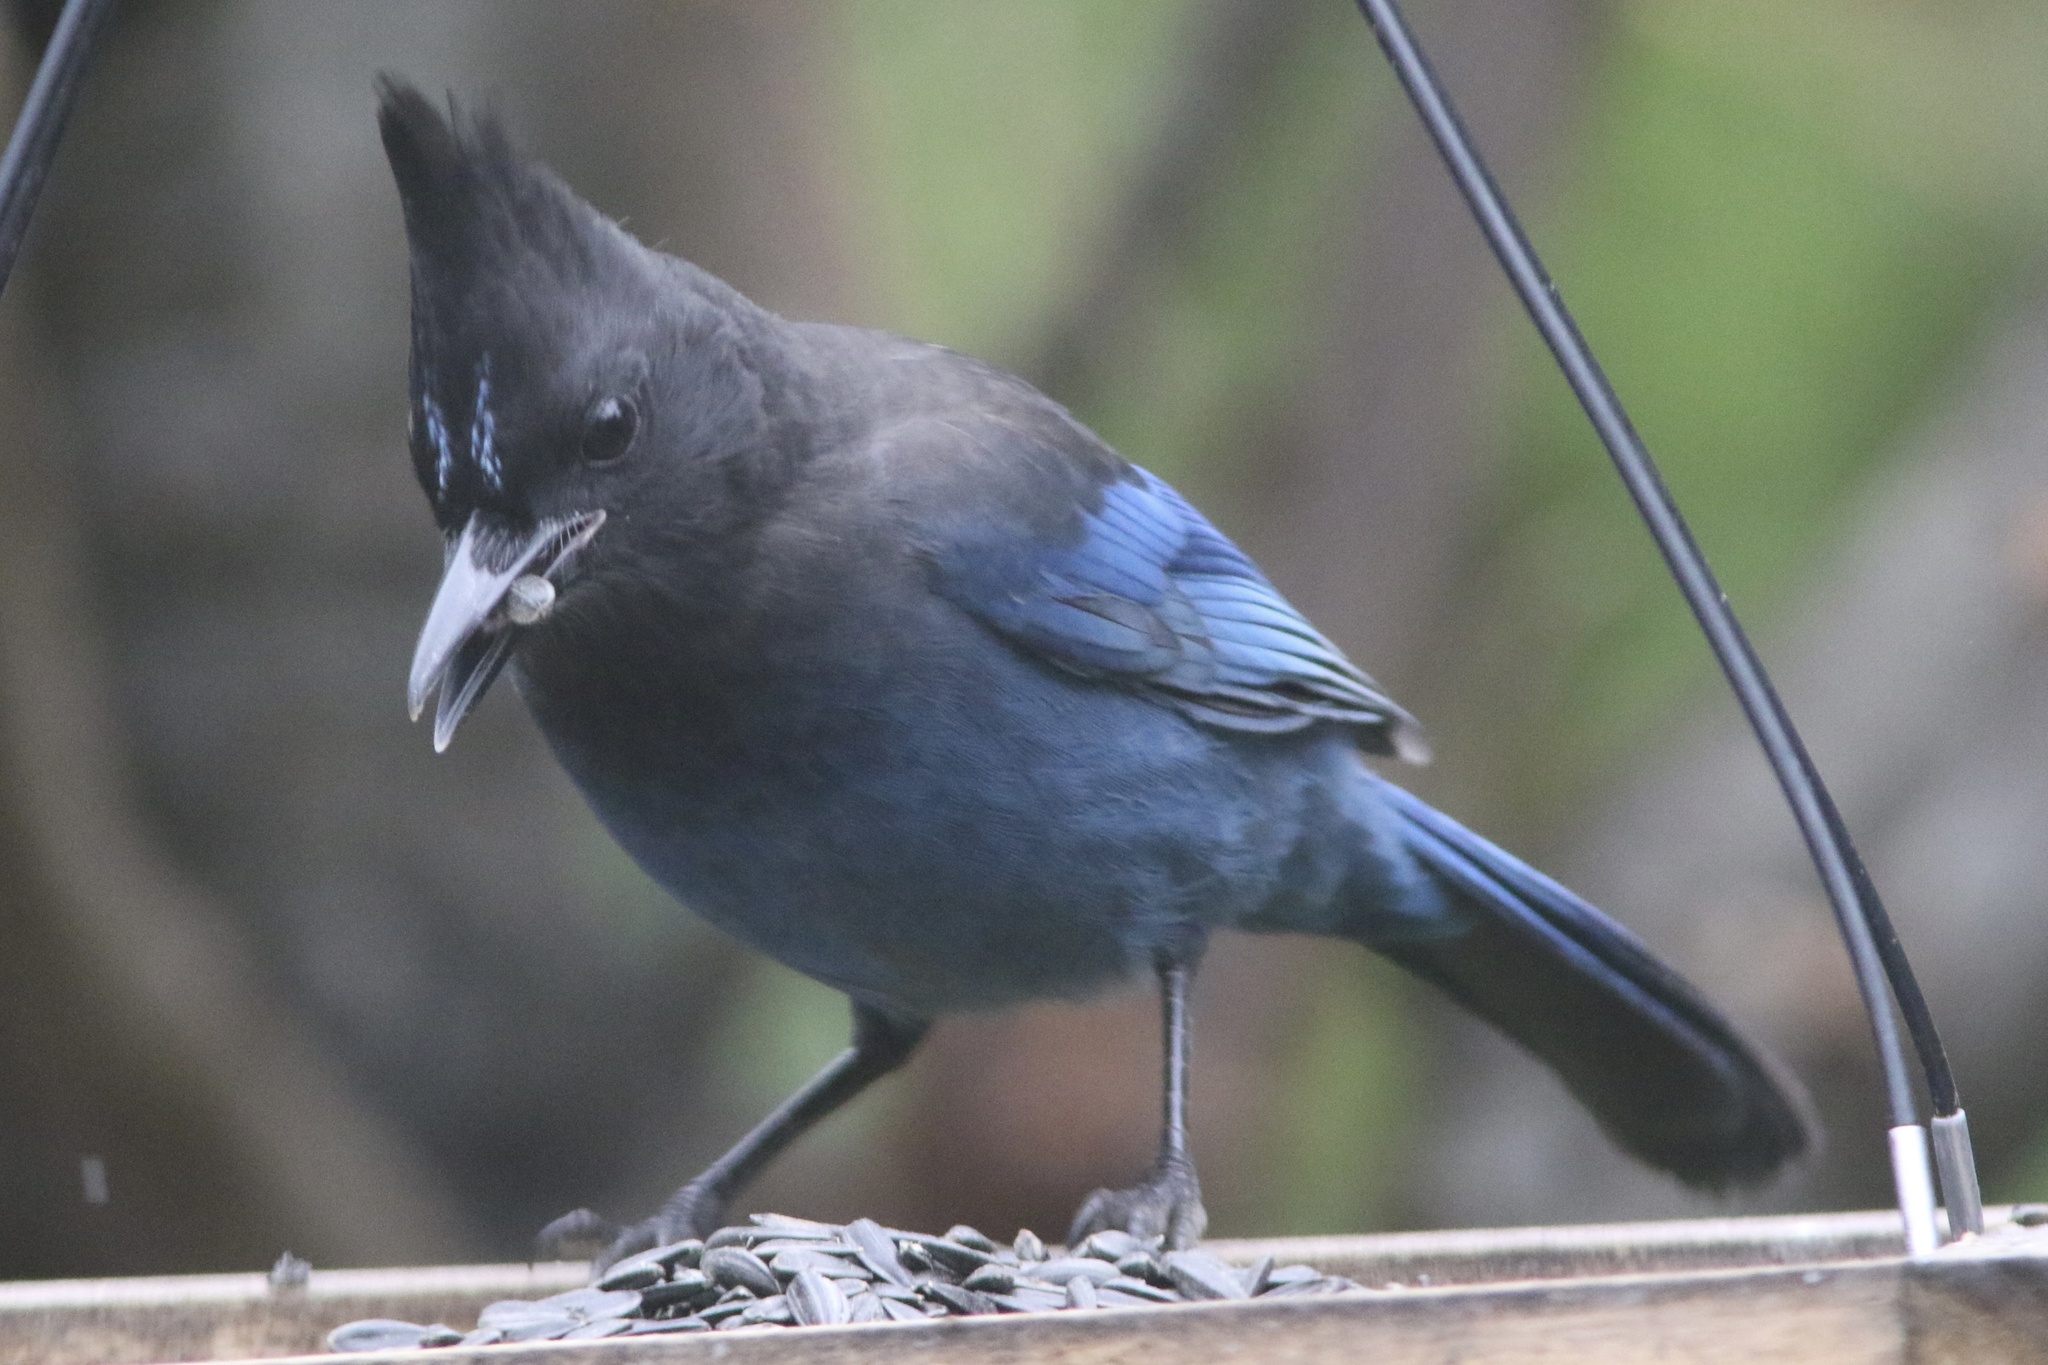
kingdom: Animalia
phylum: Chordata
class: Aves
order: Passeriformes
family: Corvidae
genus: Cyanocitta
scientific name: Cyanocitta stelleri
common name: Steller's jay
